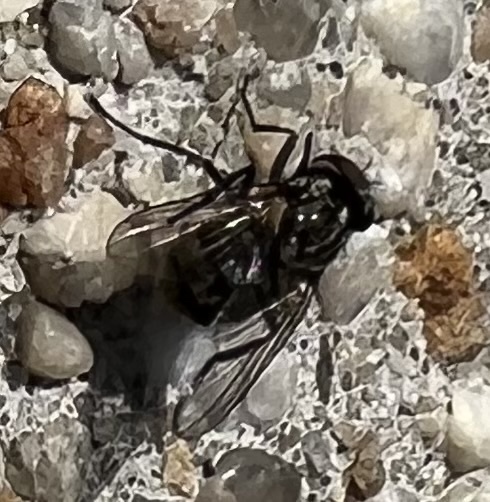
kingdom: Animalia
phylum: Arthropoda
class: Insecta
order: Diptera
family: Muscidae
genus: Stomoxys
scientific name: Stomoxys calcitrans
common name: Stable fly
